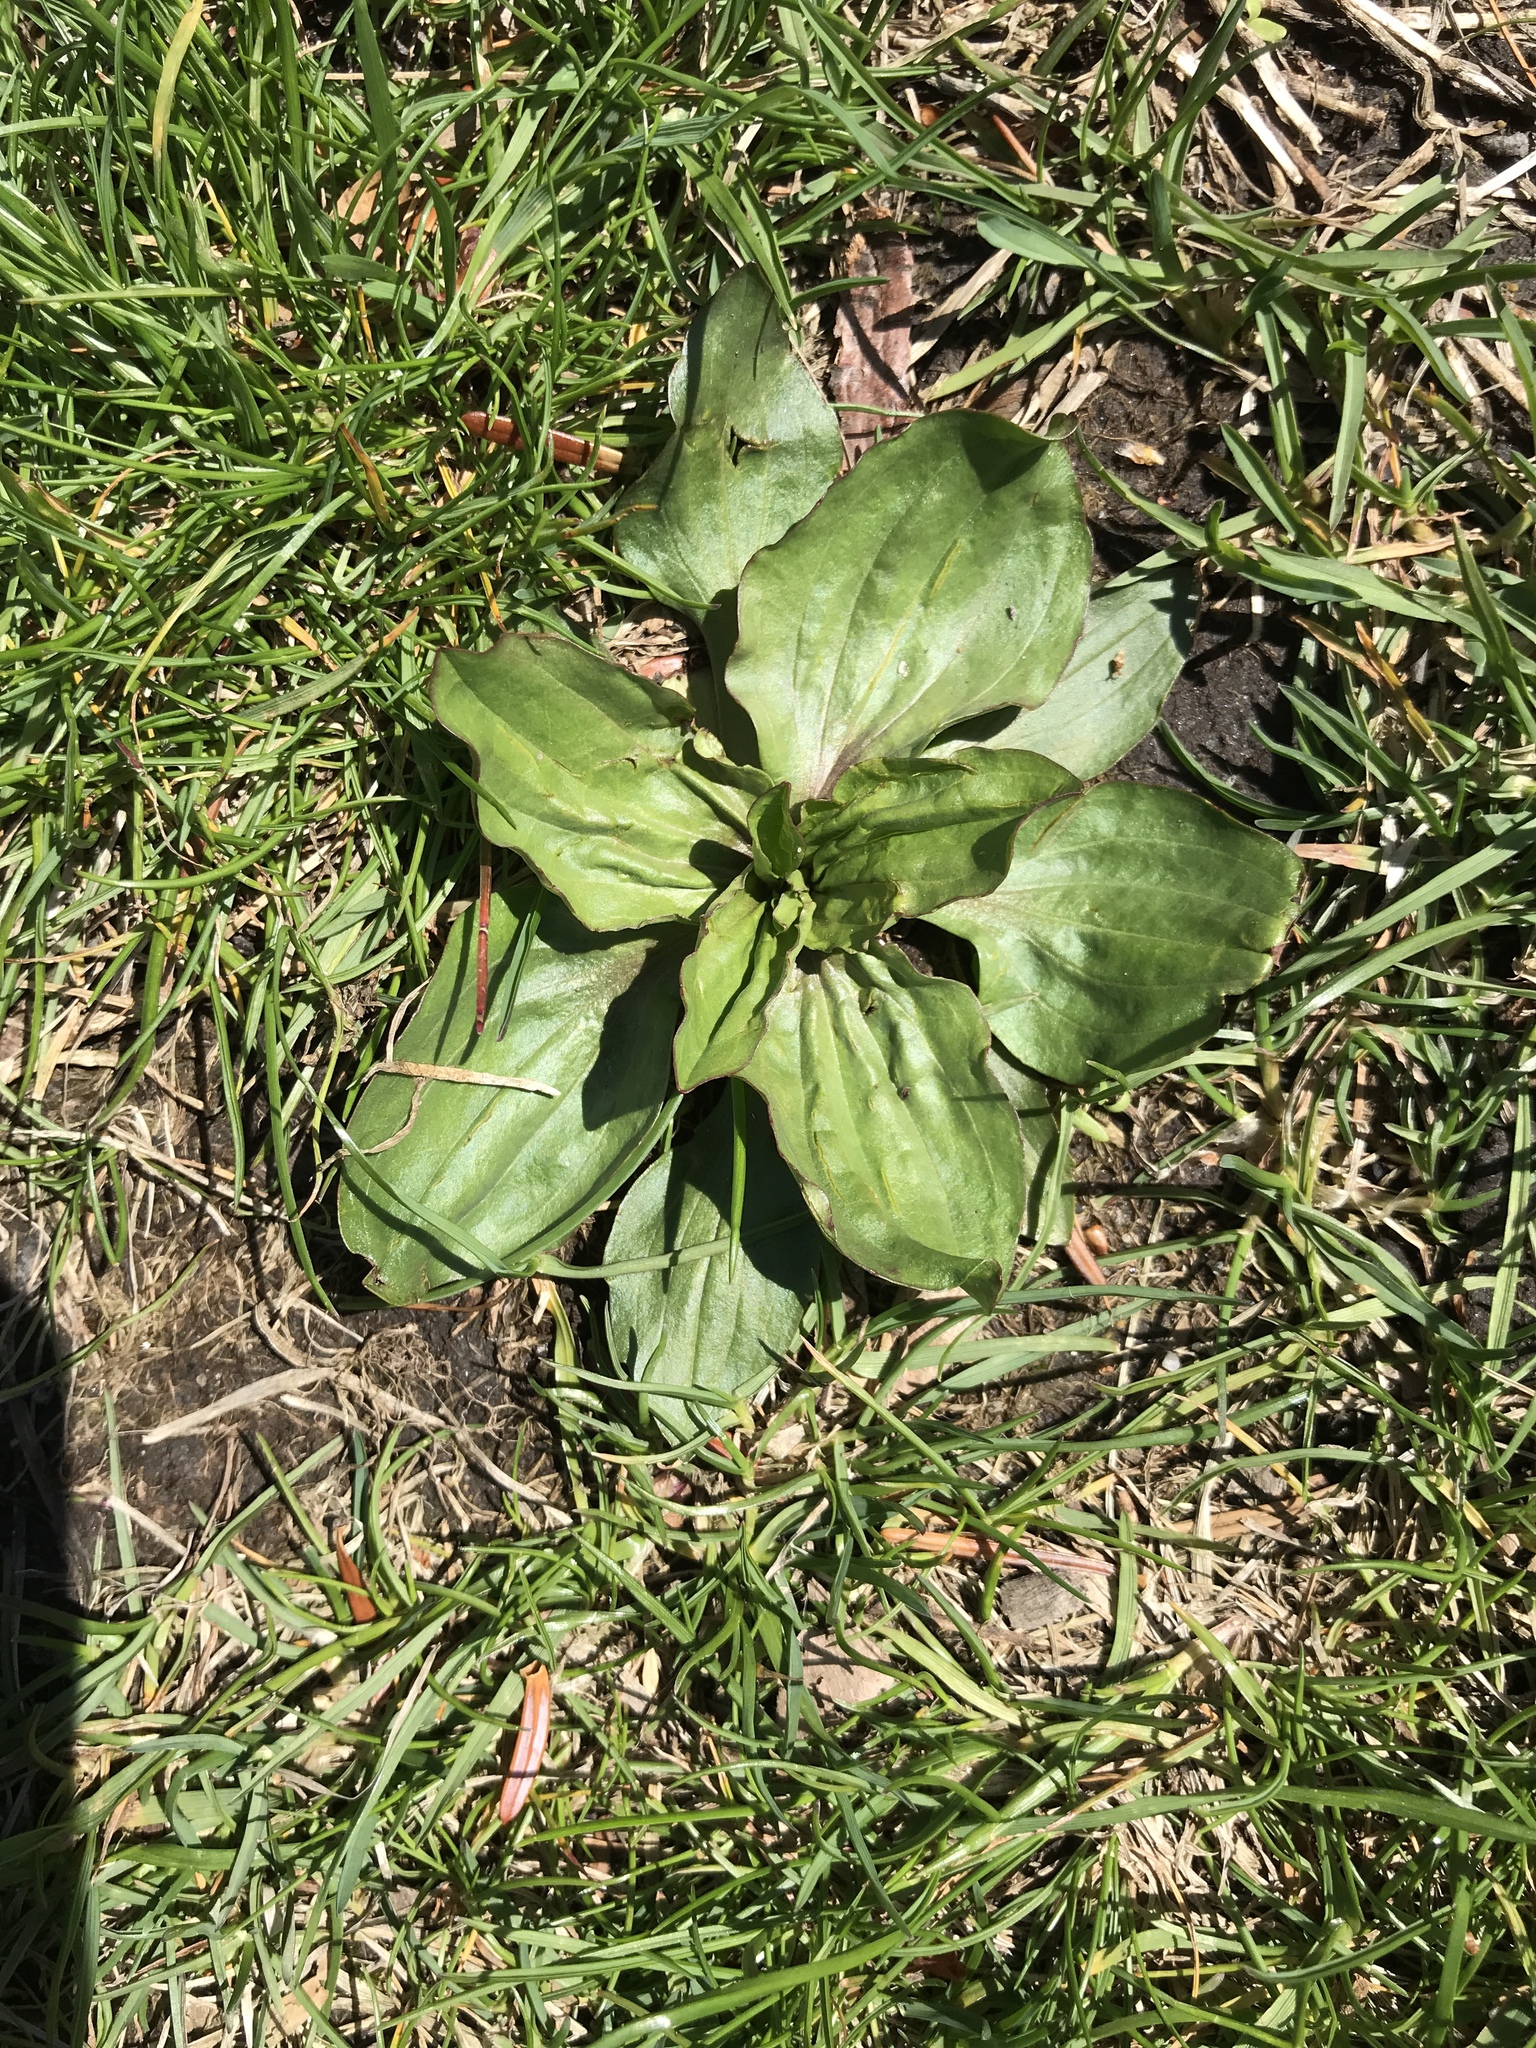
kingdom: Plantae
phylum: Tracheophyta
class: Magnoliopsida
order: Lamiales
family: Plantaginaceae
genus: Plantago
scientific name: Plantago
